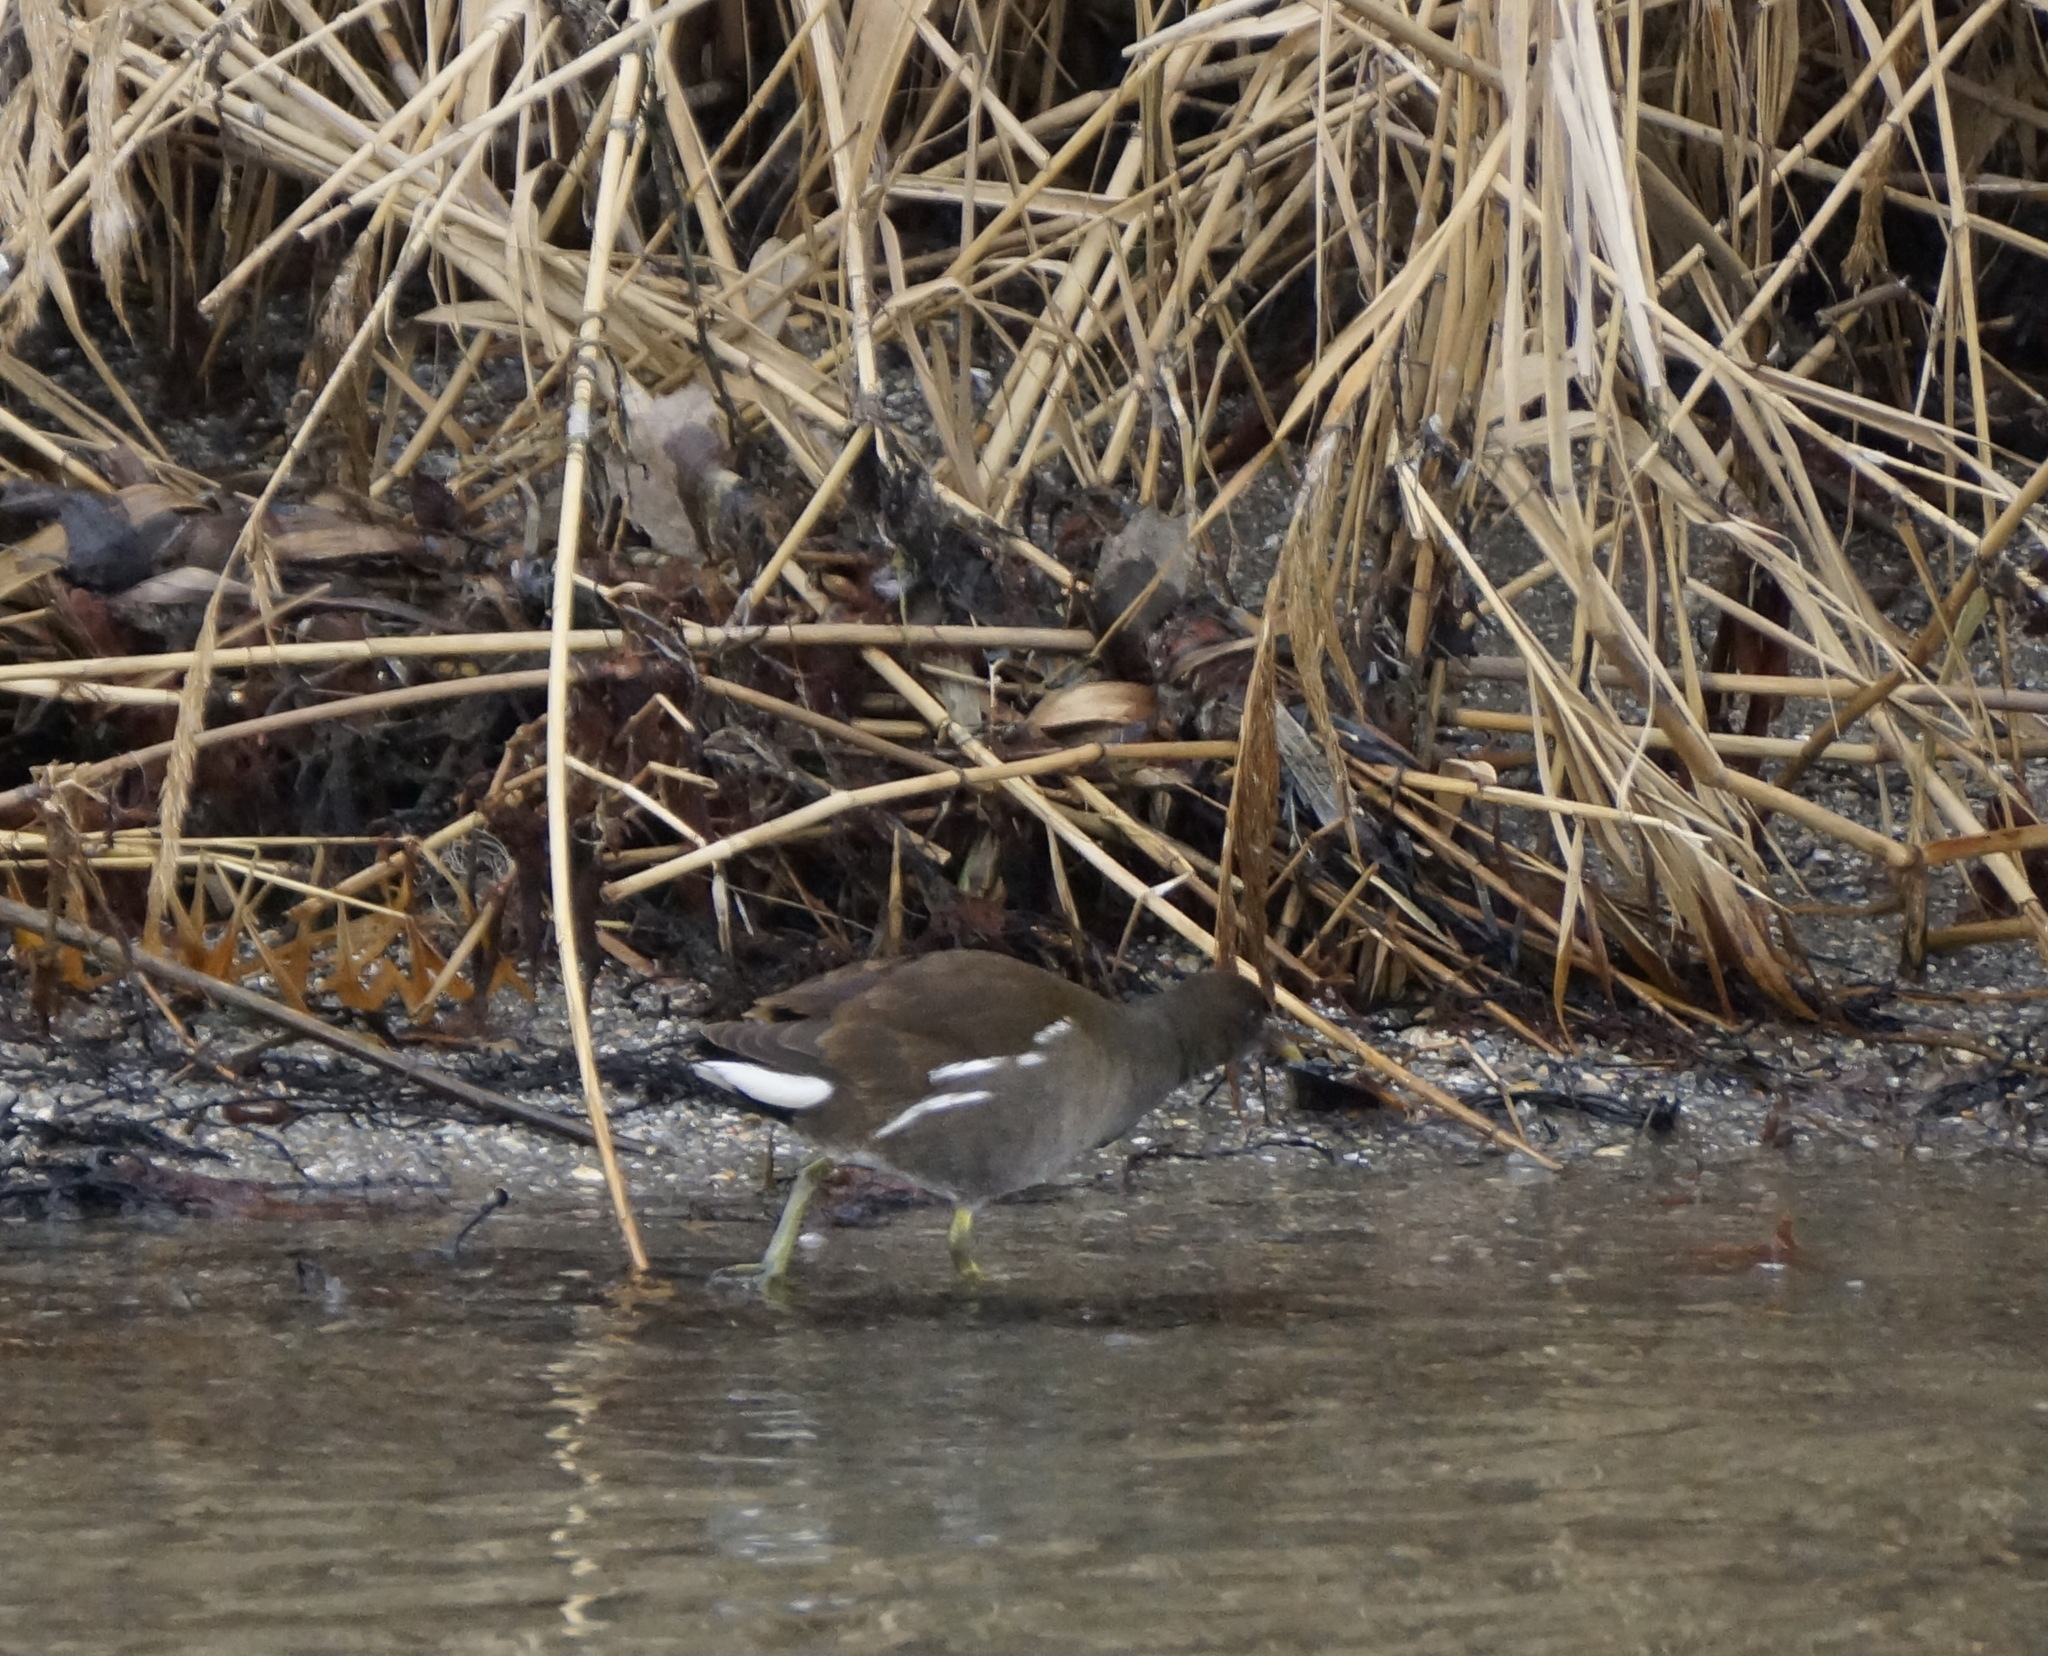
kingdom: Animalia
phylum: Chordata
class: Aves
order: Gruiformes
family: Rallidae
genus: Gallinula
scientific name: Gallinula chloropus
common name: Common moorhen
